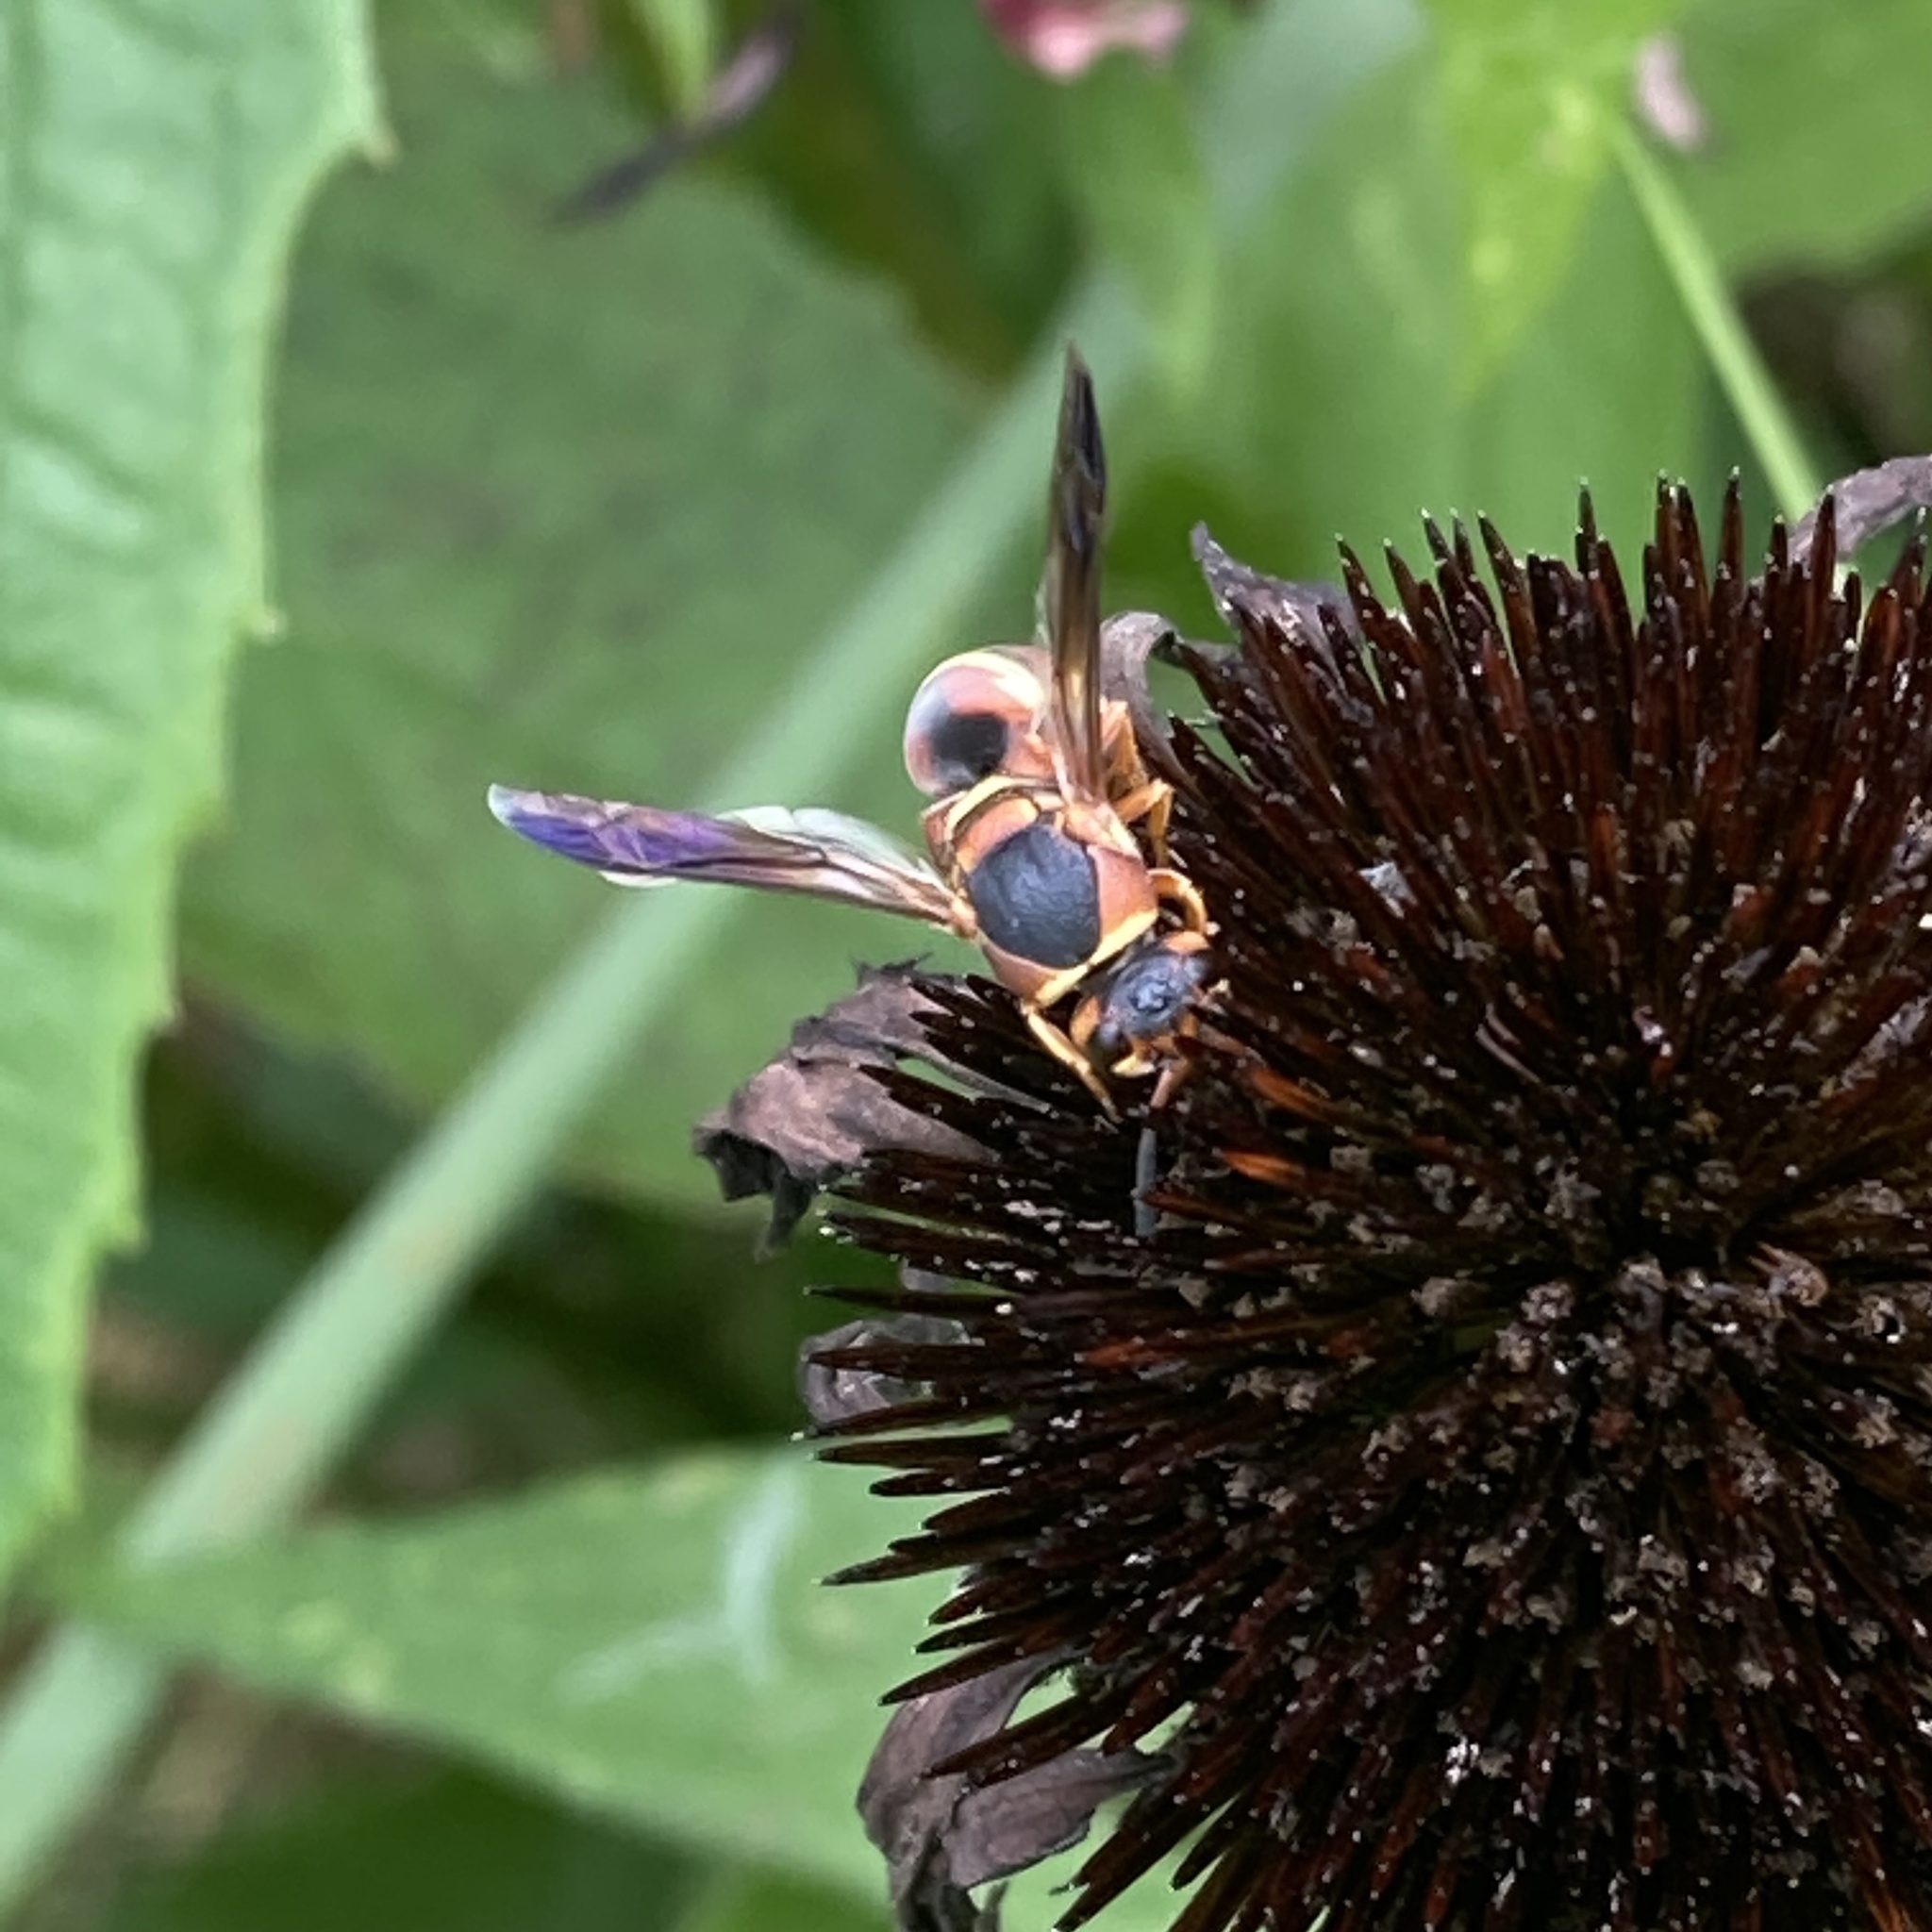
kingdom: Animalia
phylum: Arthropoda
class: Insecta
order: Hymenoptera
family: Eumenidae
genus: Euodynerus
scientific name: Euodynerus hidalgo
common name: Wasp
